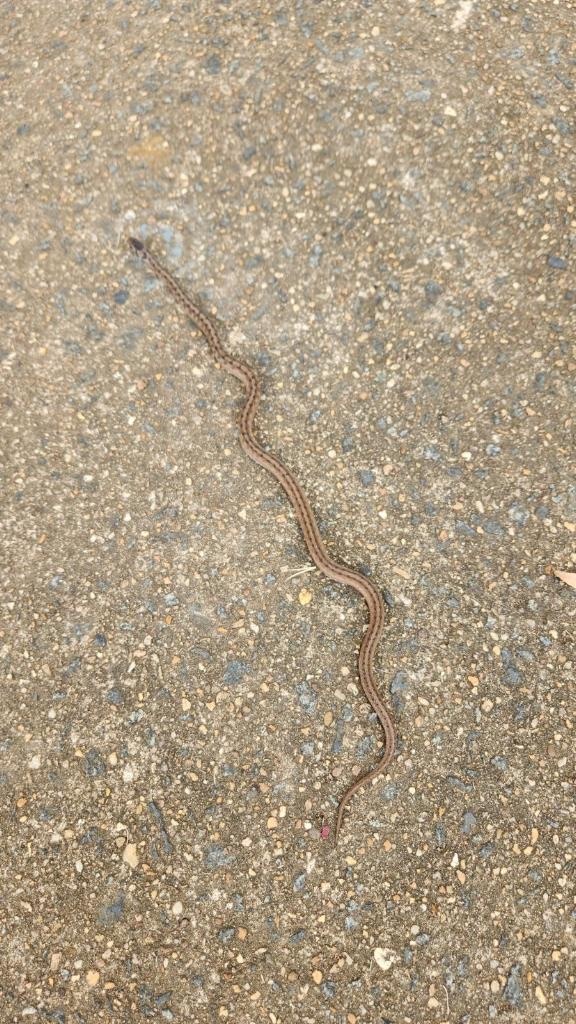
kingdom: Animalia
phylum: Chordata
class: Squamata
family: Colubridae
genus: Storeria
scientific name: Storeria dekayi
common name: (dekay’s) brown snake
